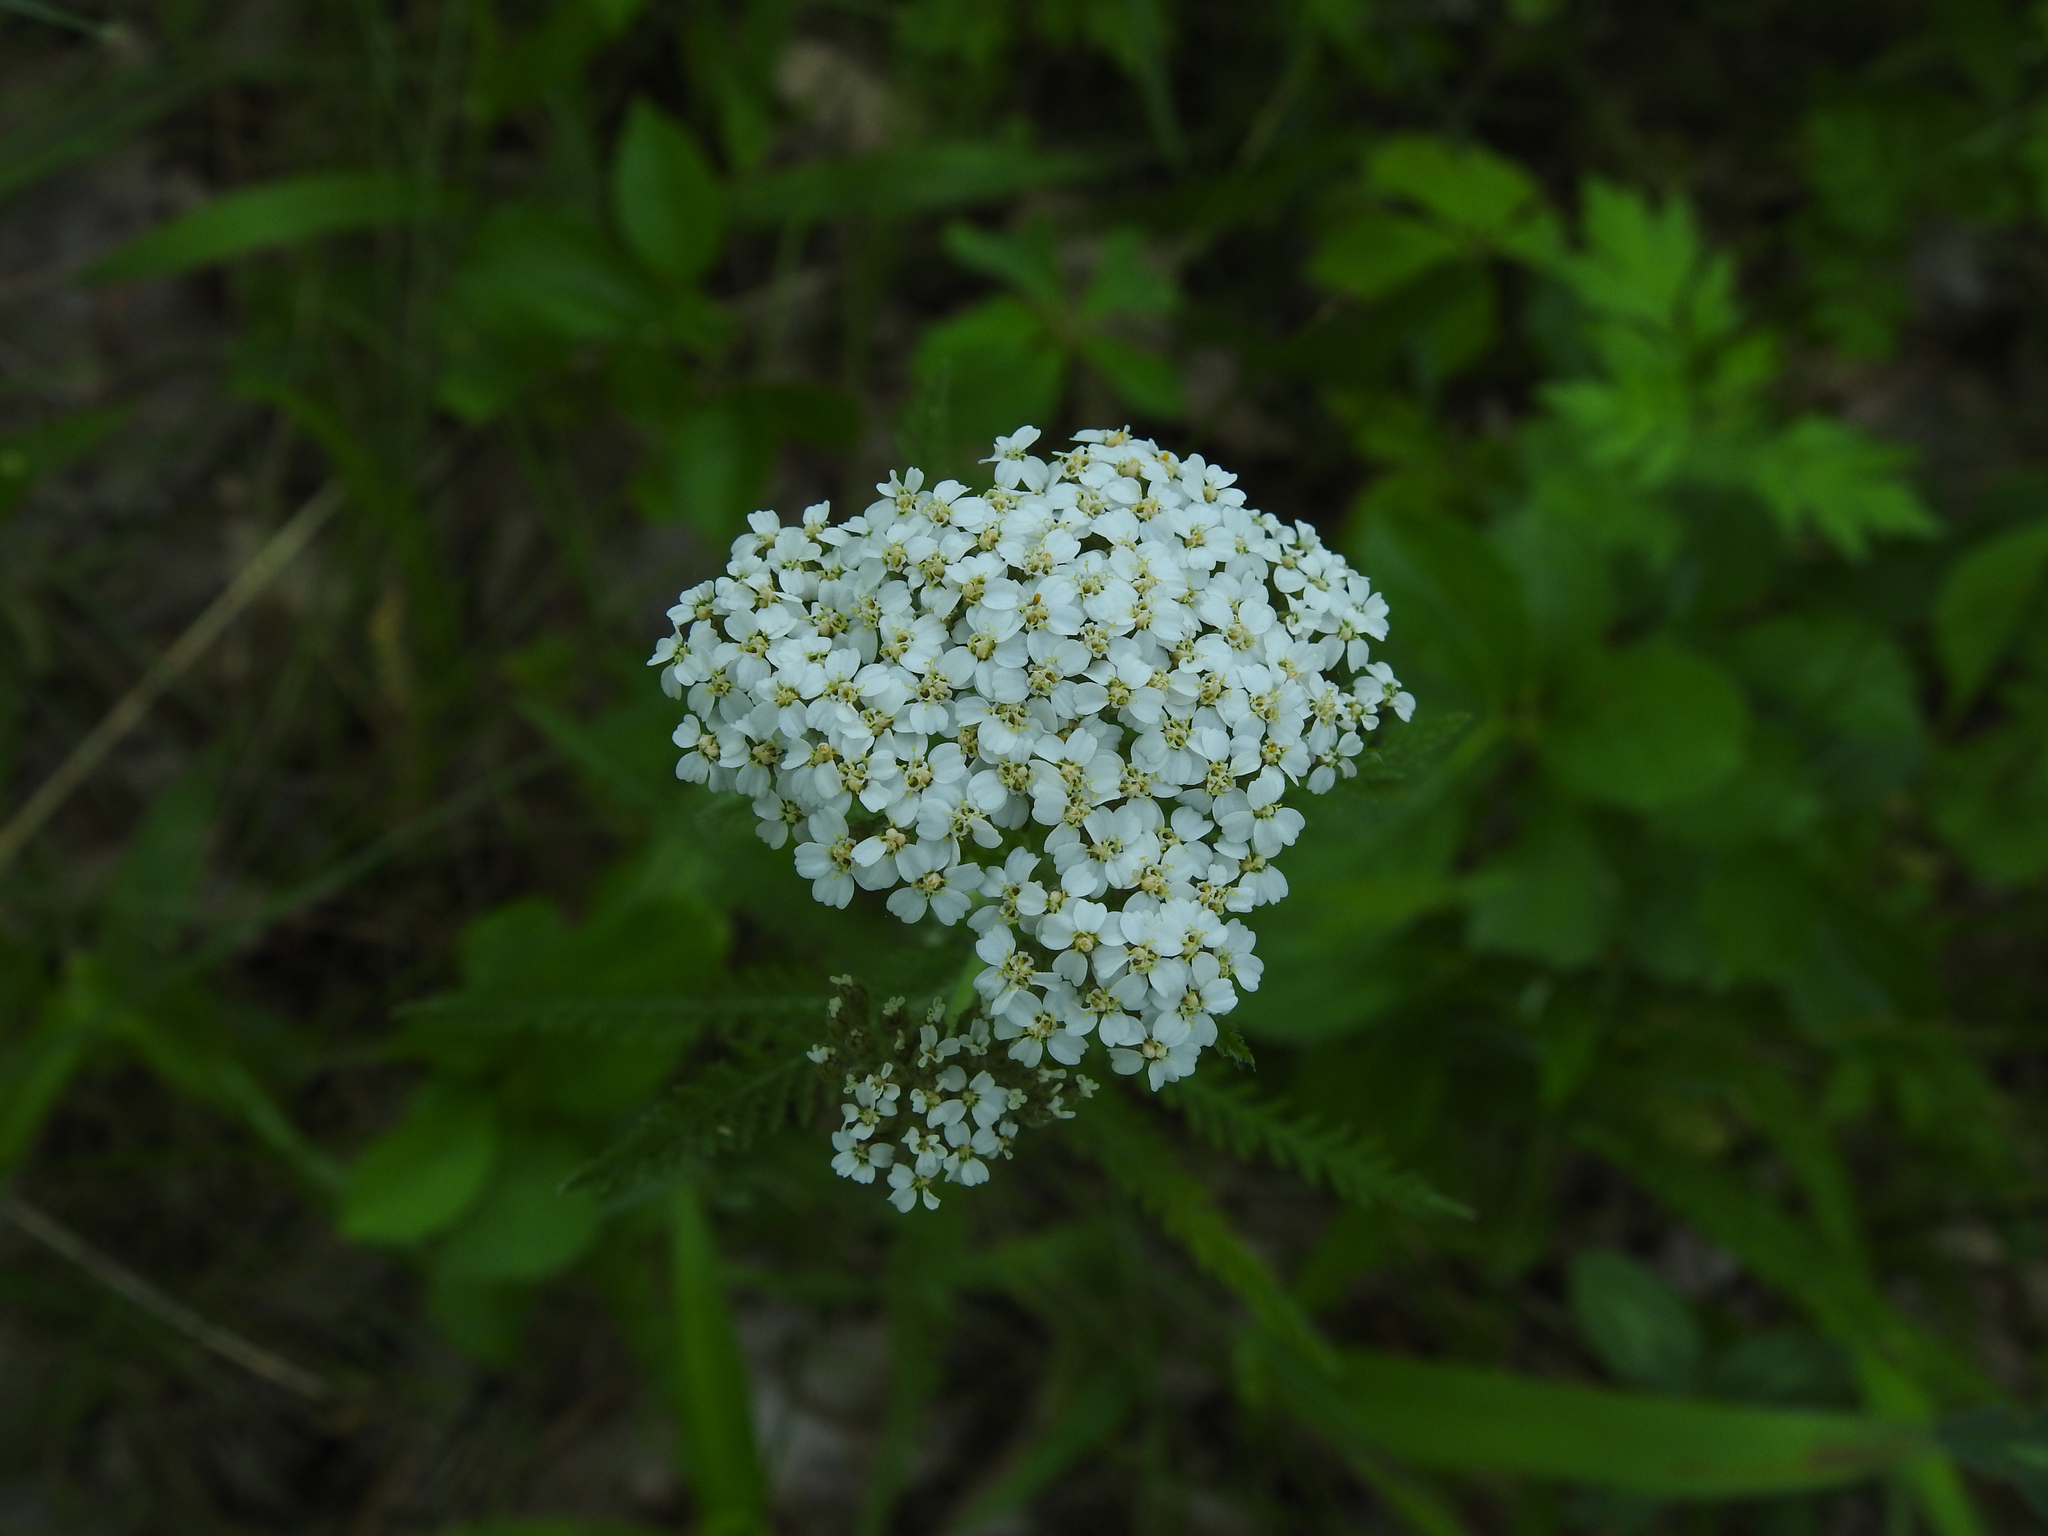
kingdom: Plantae
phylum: Tracheophyta
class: Magnoliopsida
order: Asterales
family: Asteraceae
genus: Achillea
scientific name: Achillea millefolium
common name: Yarrow
